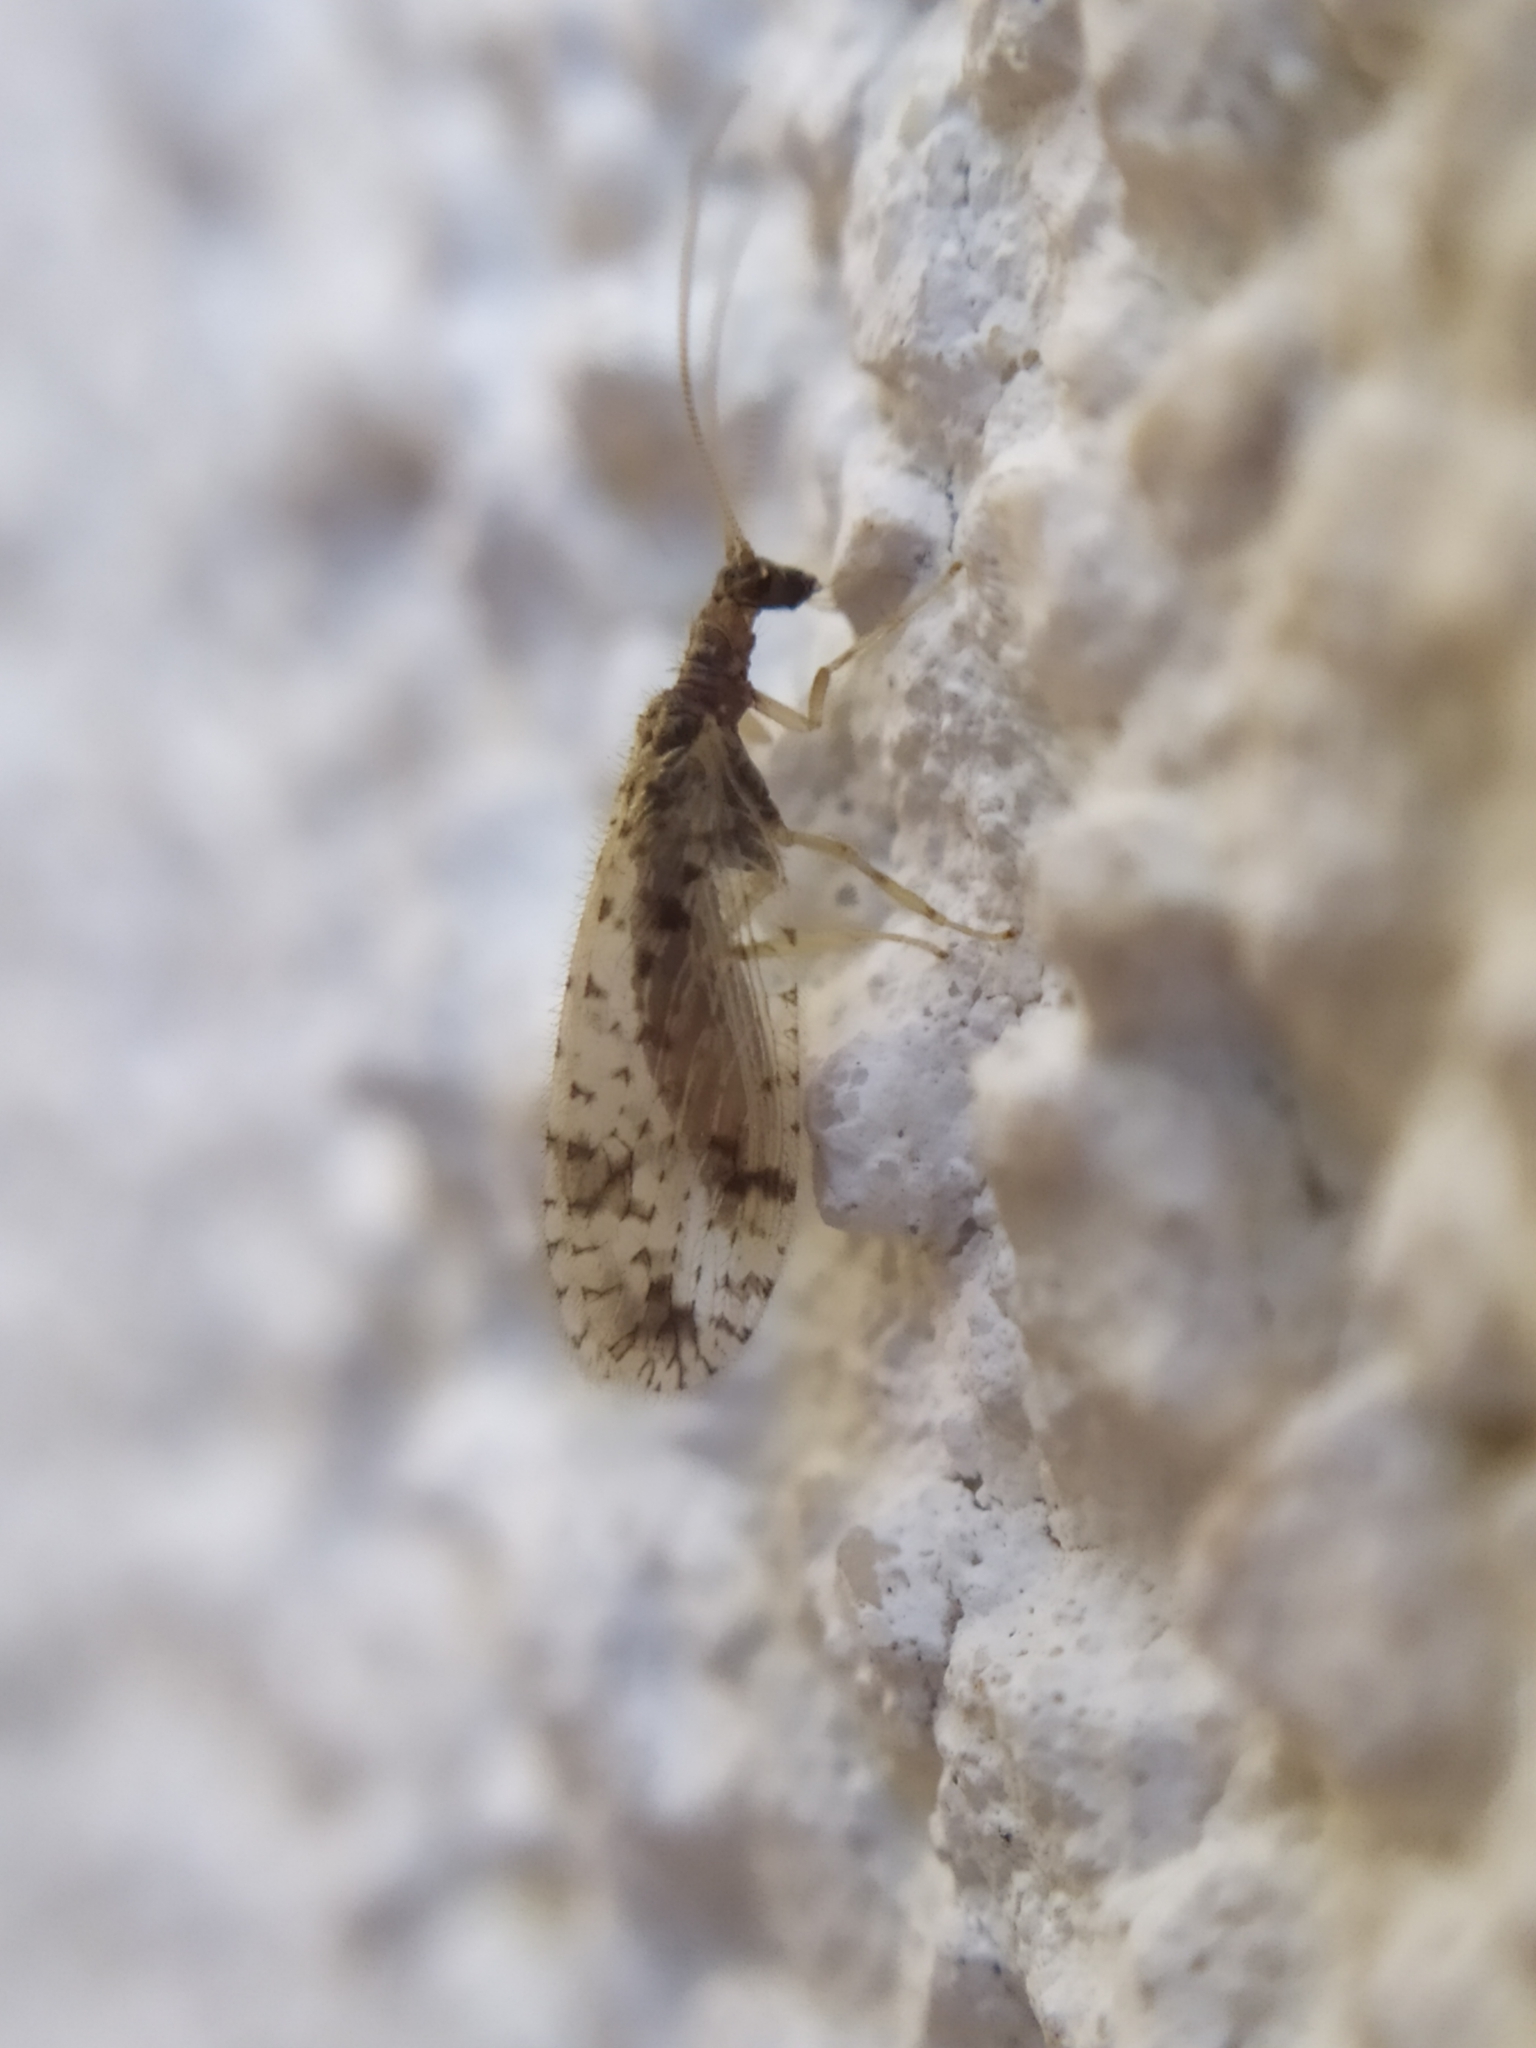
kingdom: Animalia
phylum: Arthropoda
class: Insecta
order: Neuroptera
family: Hemerobiidae
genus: Micromus
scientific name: Micromus variegatus
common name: Brown lacewing
